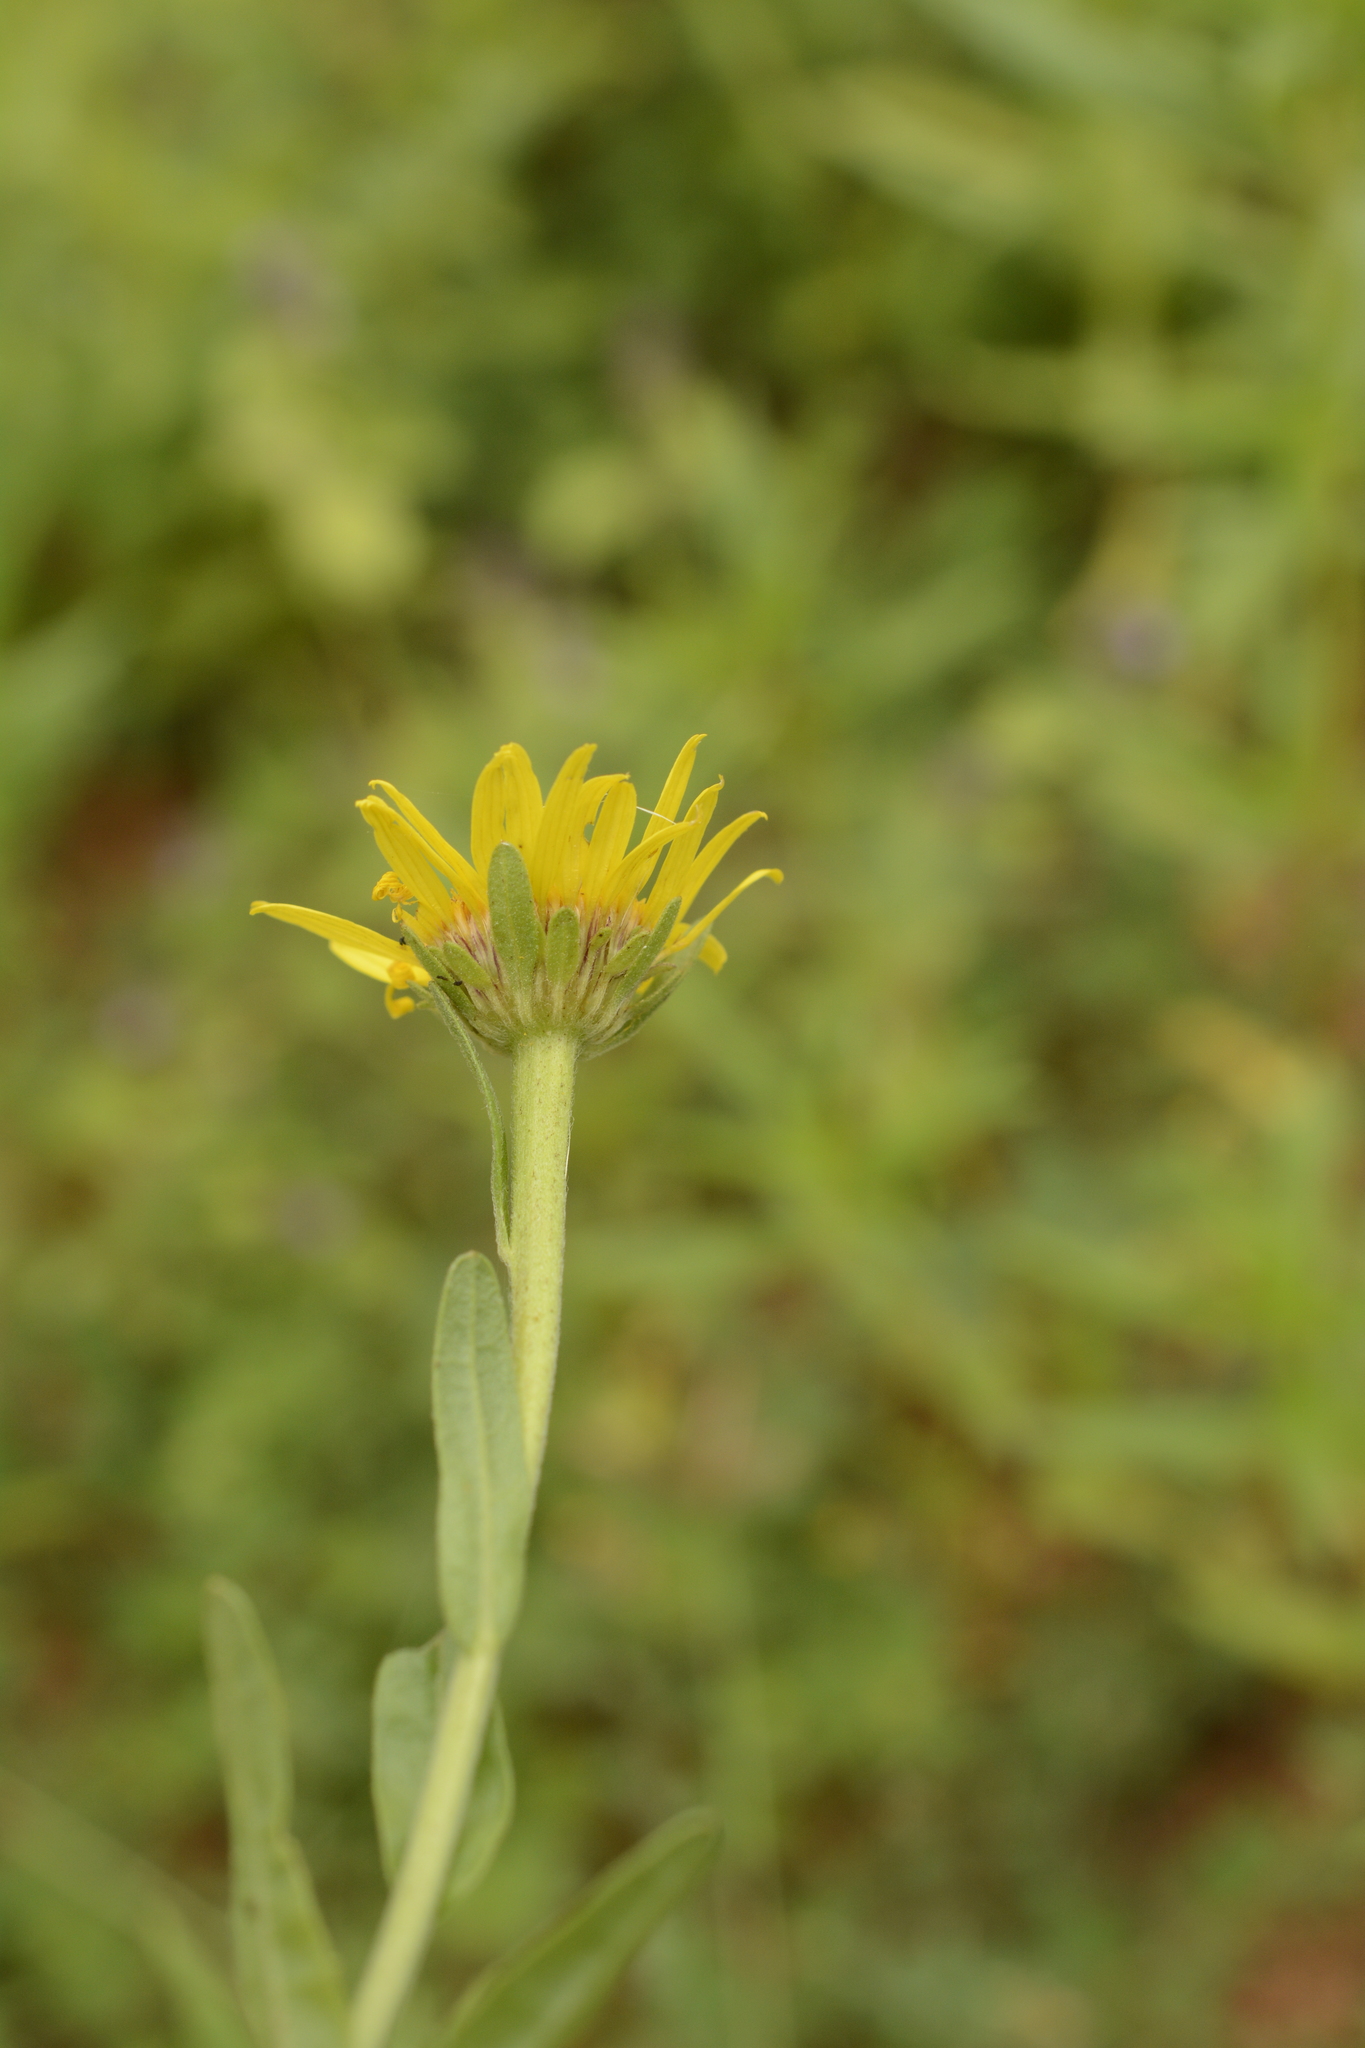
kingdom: Plantae
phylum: Tracheophyta
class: Magnoliopsida
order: Asterales
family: Asteraceae
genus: Pulicaria
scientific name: Pulicaria wightiana
